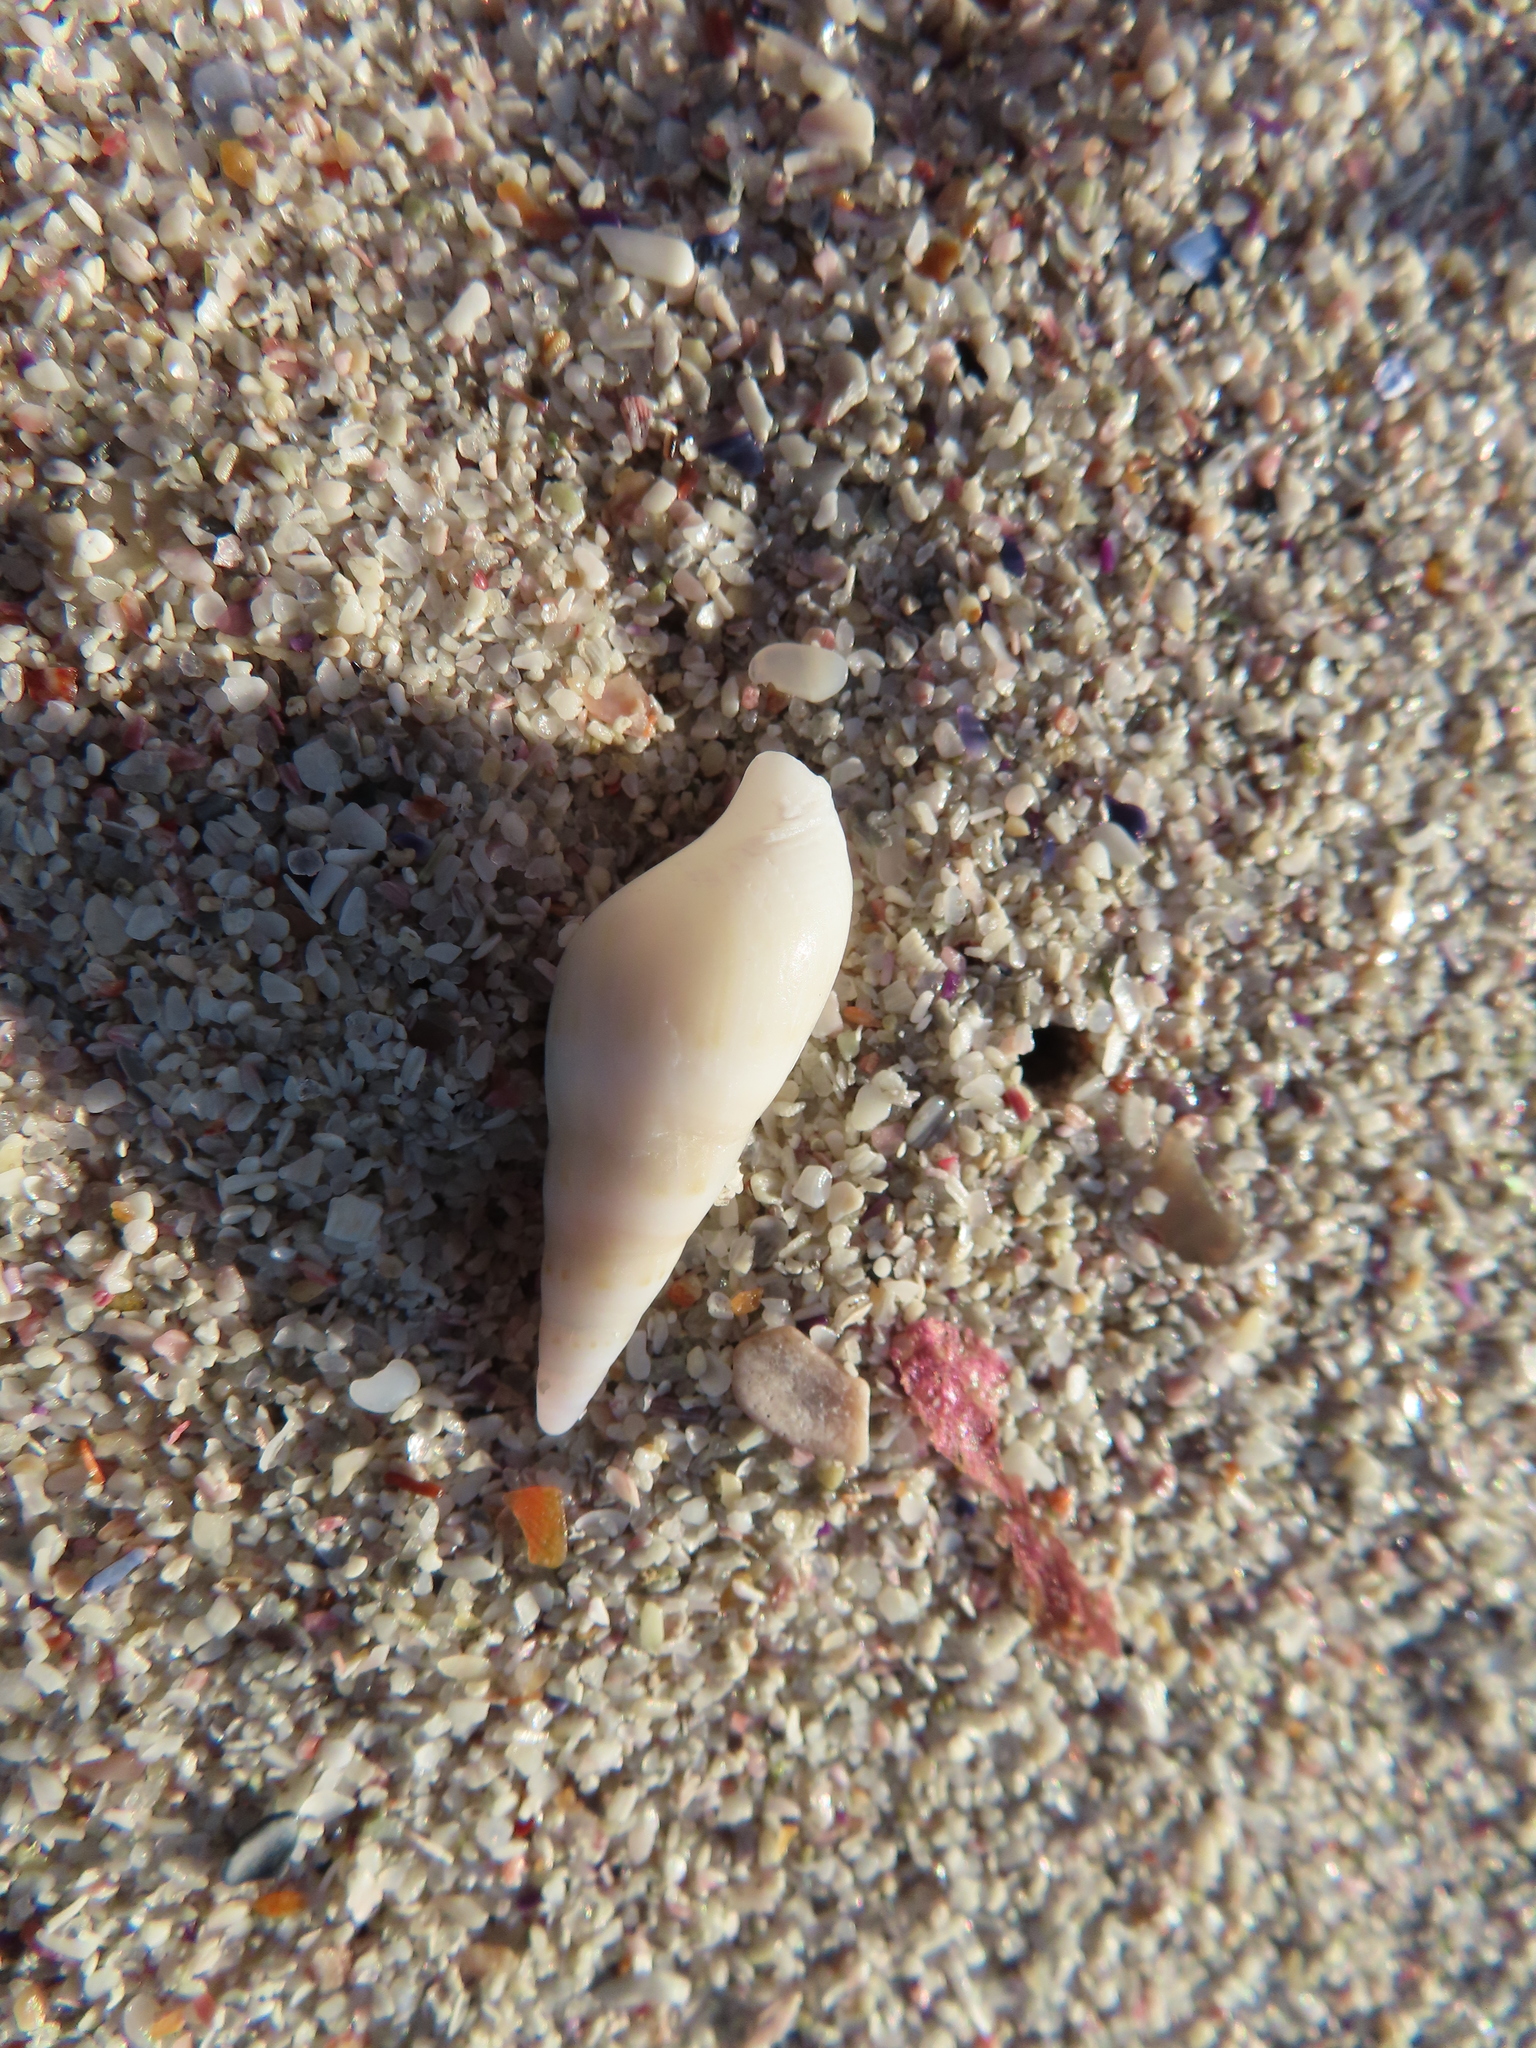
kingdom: Animalia
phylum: Mollusca
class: Gastropoda
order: Neogastropoda
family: Nassariidae
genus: Bullia
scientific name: Bullia
